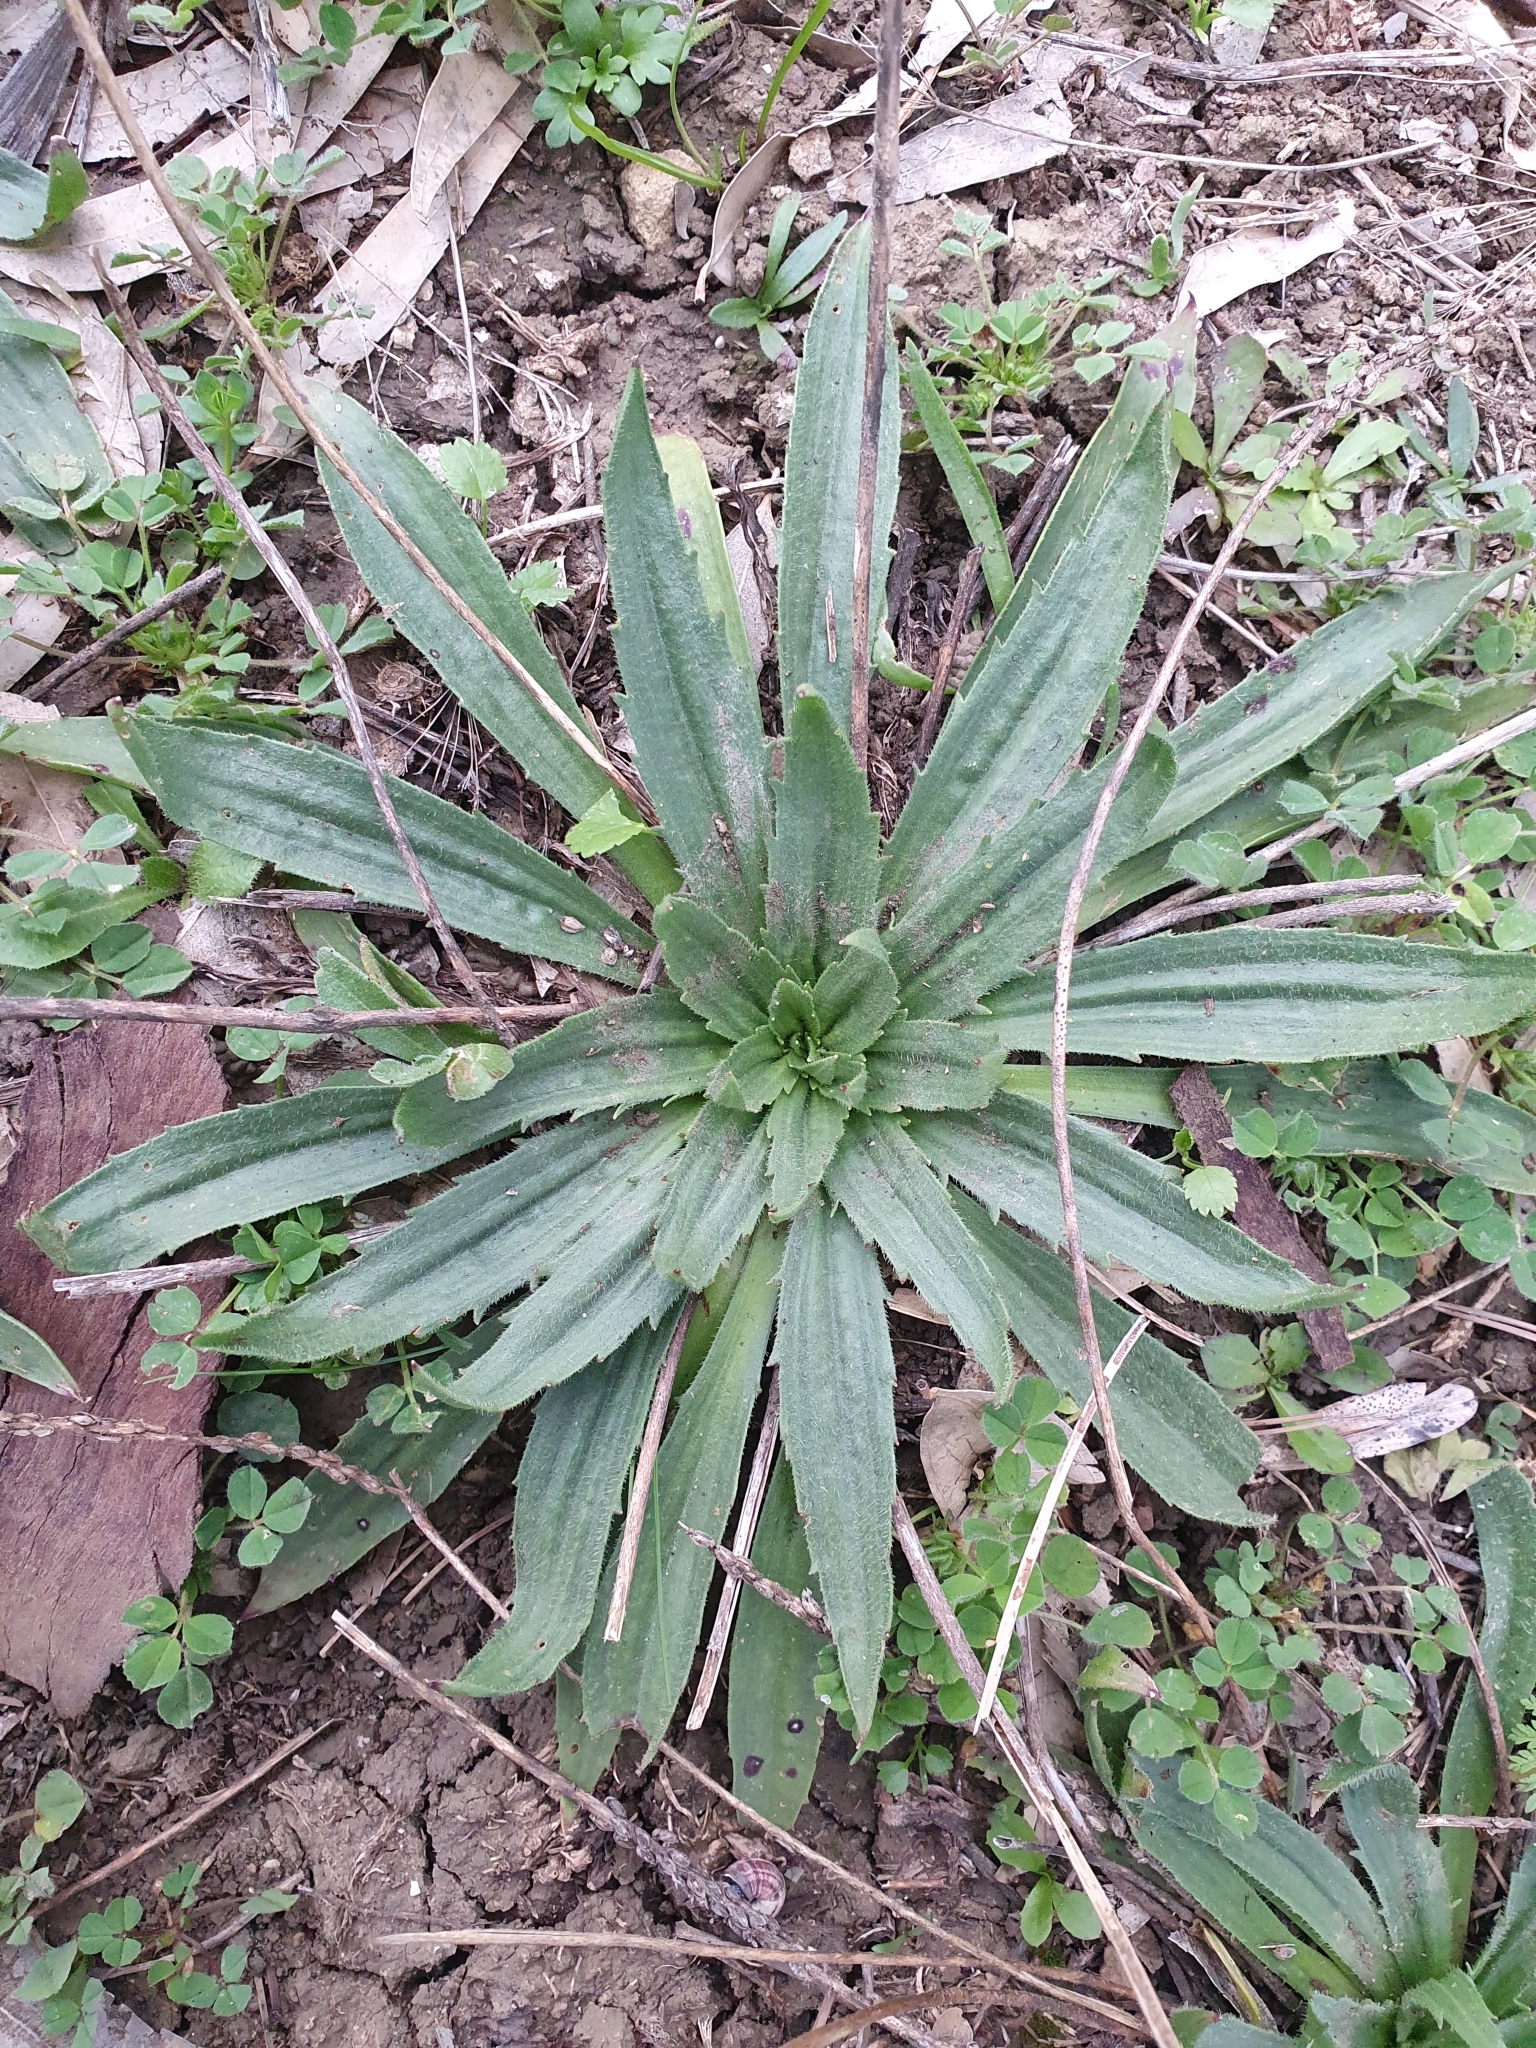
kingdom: Plantae
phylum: Tracheophyta
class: Magnoliopsida
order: Lamiales
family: Plantaginaceae
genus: Plantago
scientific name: Plantago serraria
